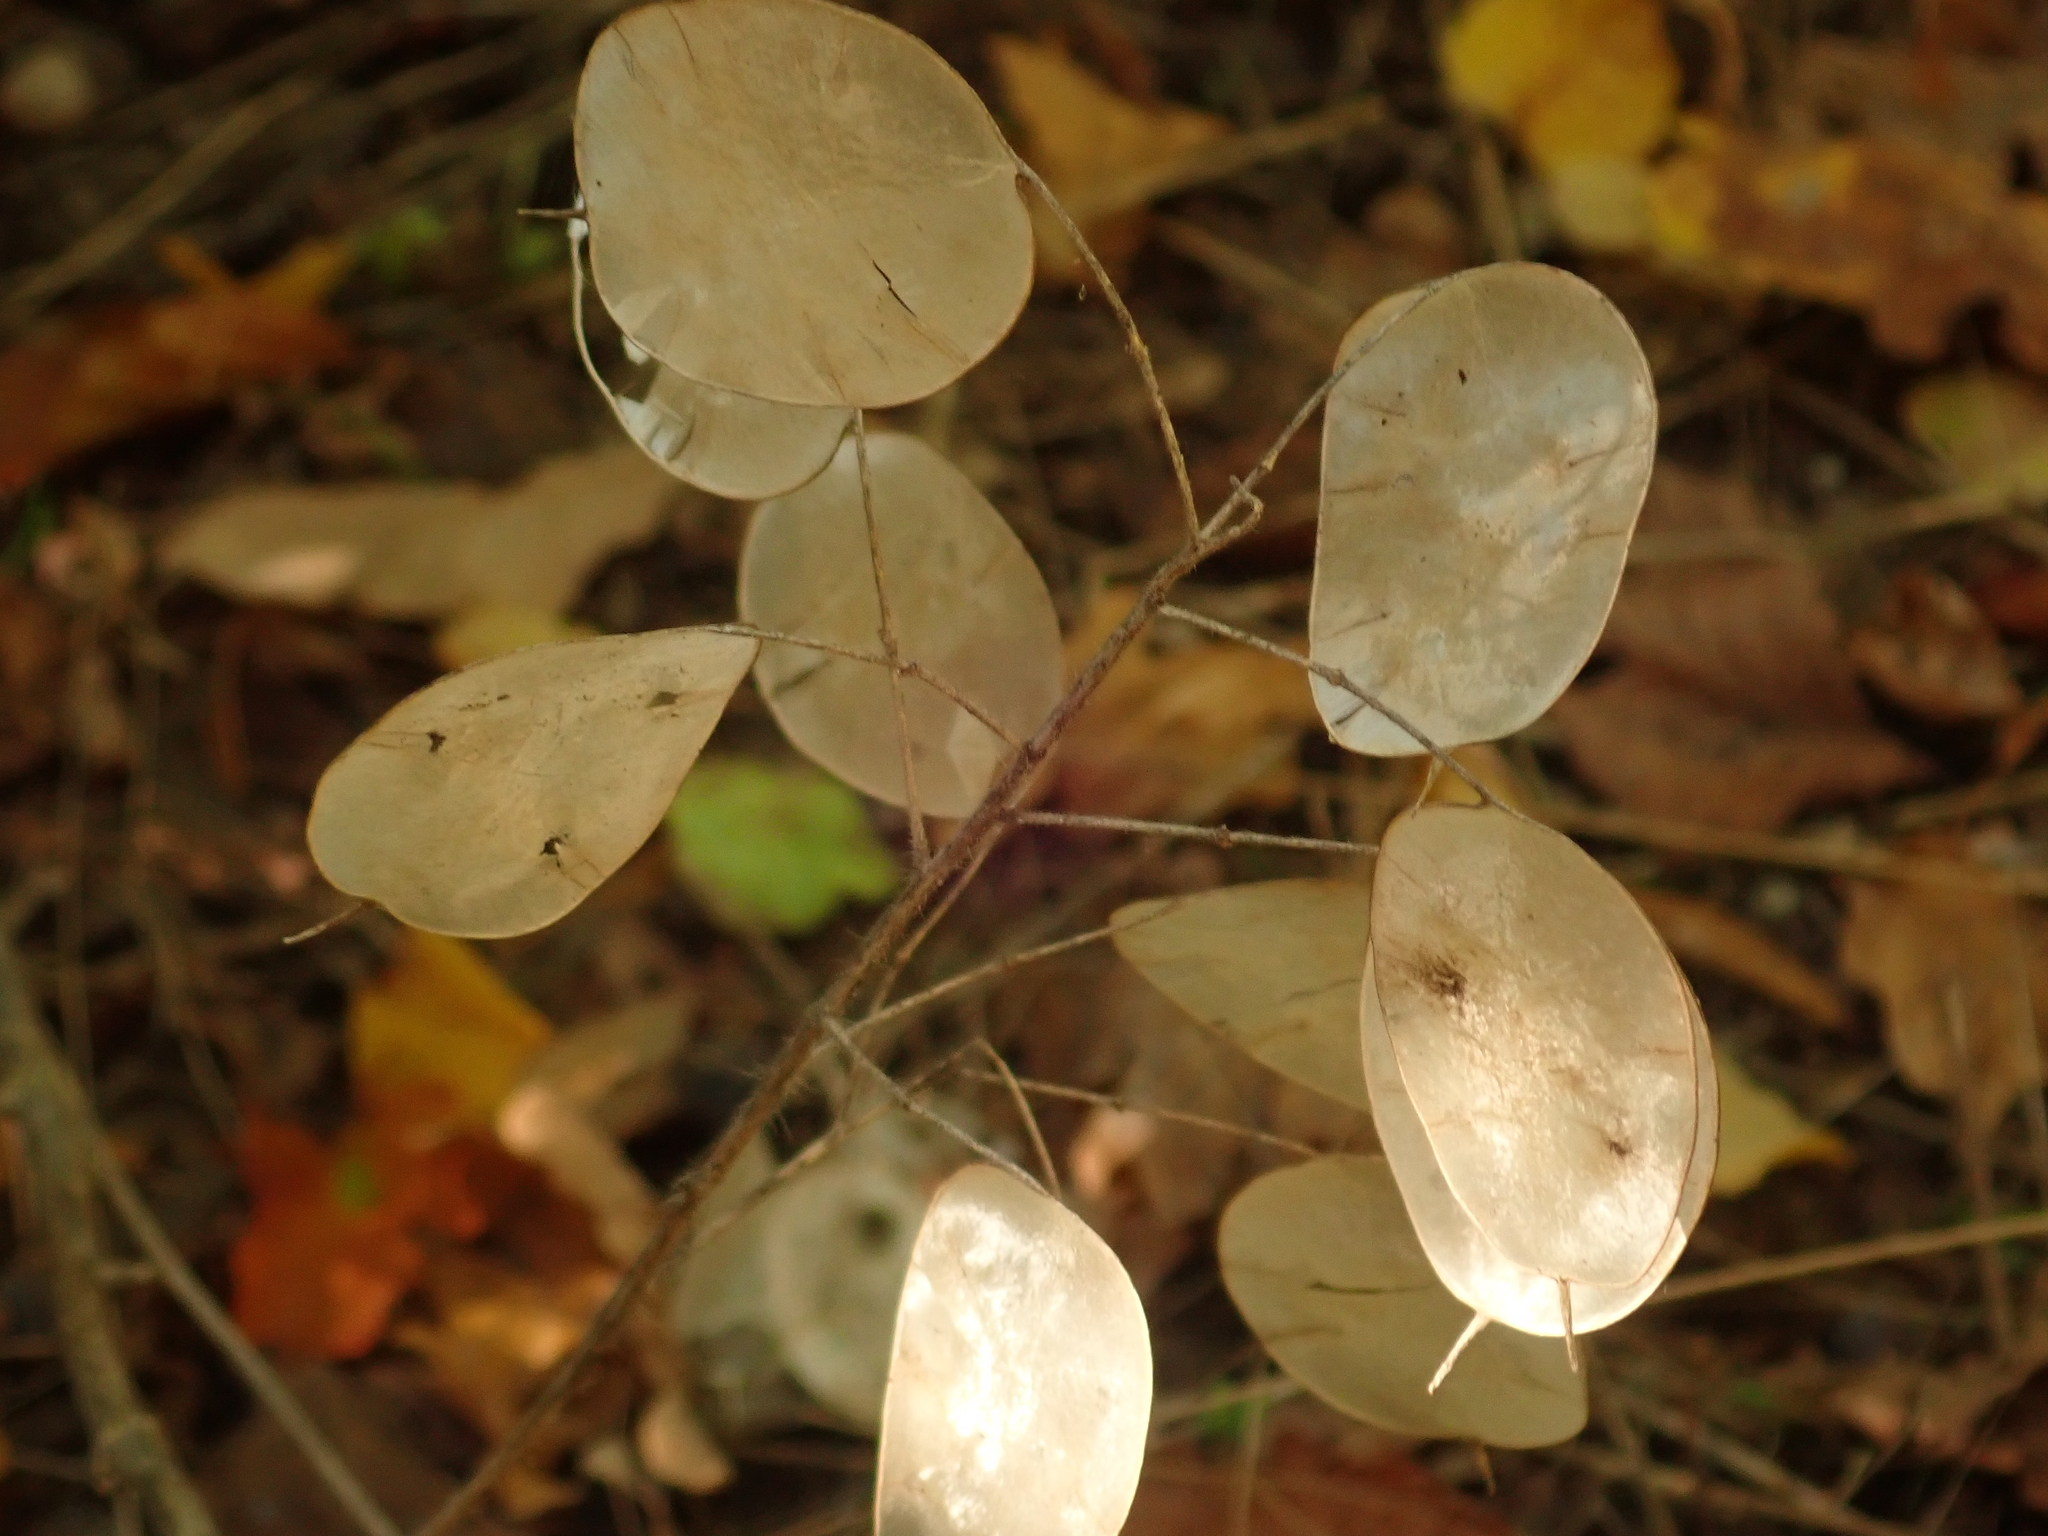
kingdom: Plantae
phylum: Tracheophyta
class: Magnoliopsida
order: Brassicales
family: Brassicaceae
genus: Lunaria
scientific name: Lunaria annua
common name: Honesty
